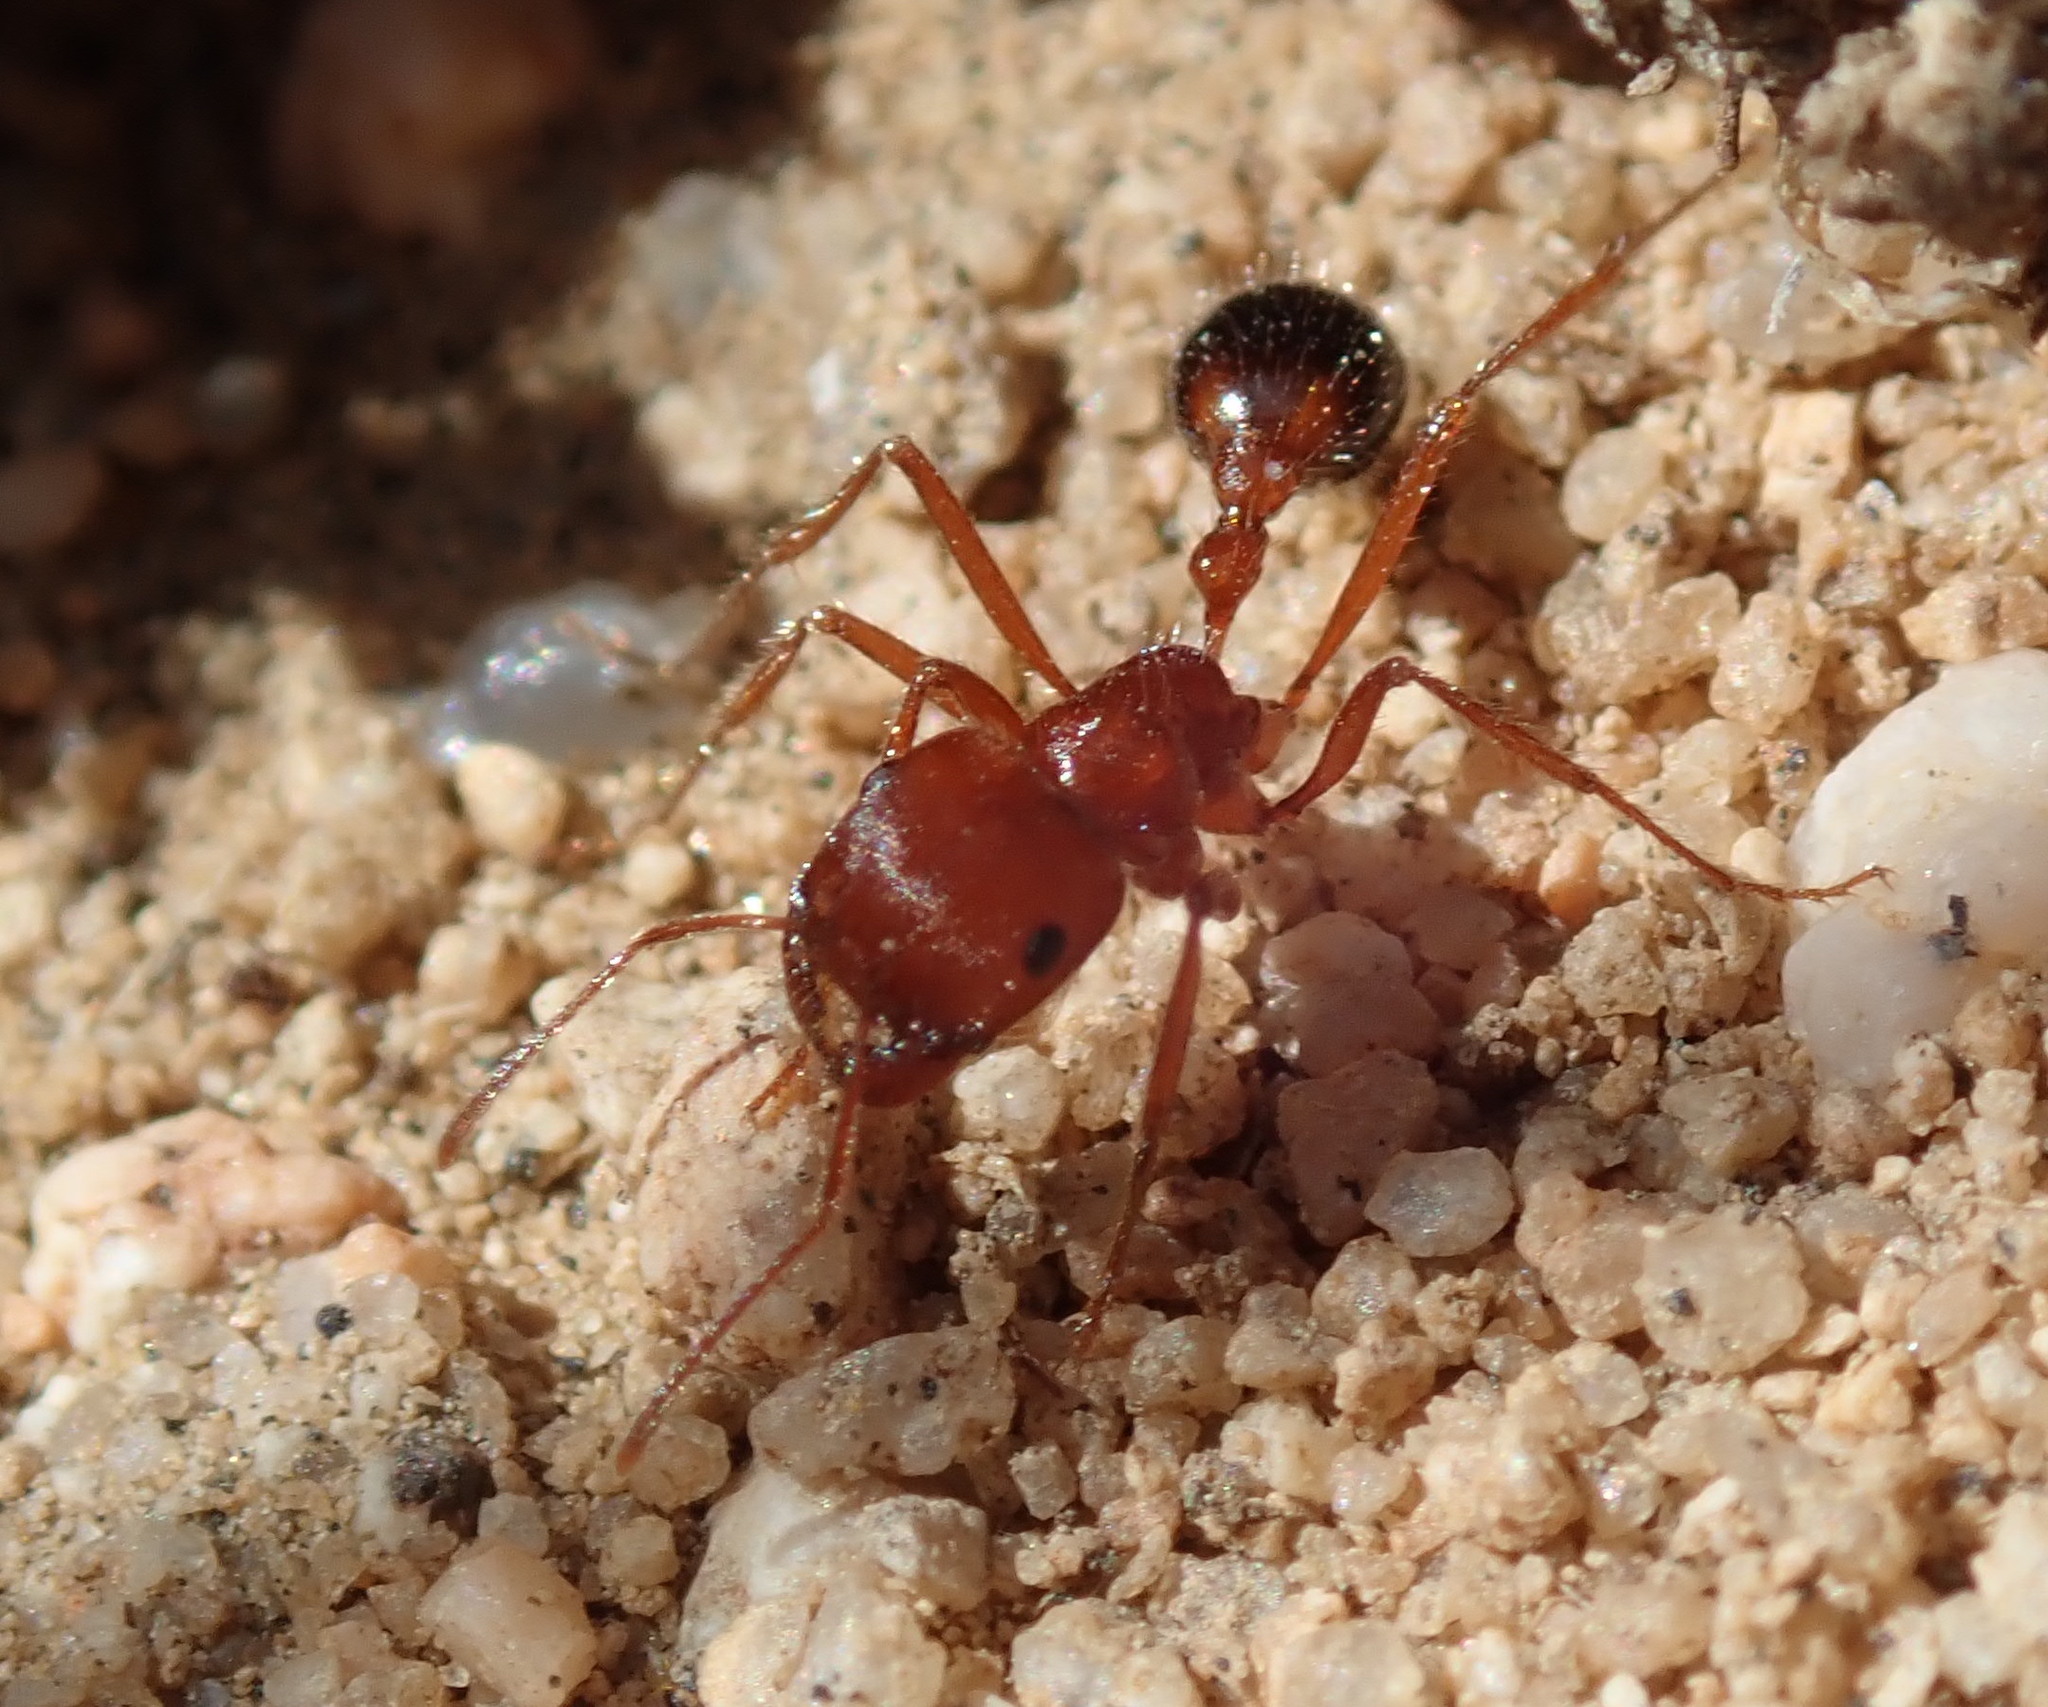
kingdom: Animalia
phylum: Arthropoda
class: Insecta
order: Hymenoptera
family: Formicidae
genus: Pogonomyrmex
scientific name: Pogonomyrmex californicus
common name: California harvester ant
